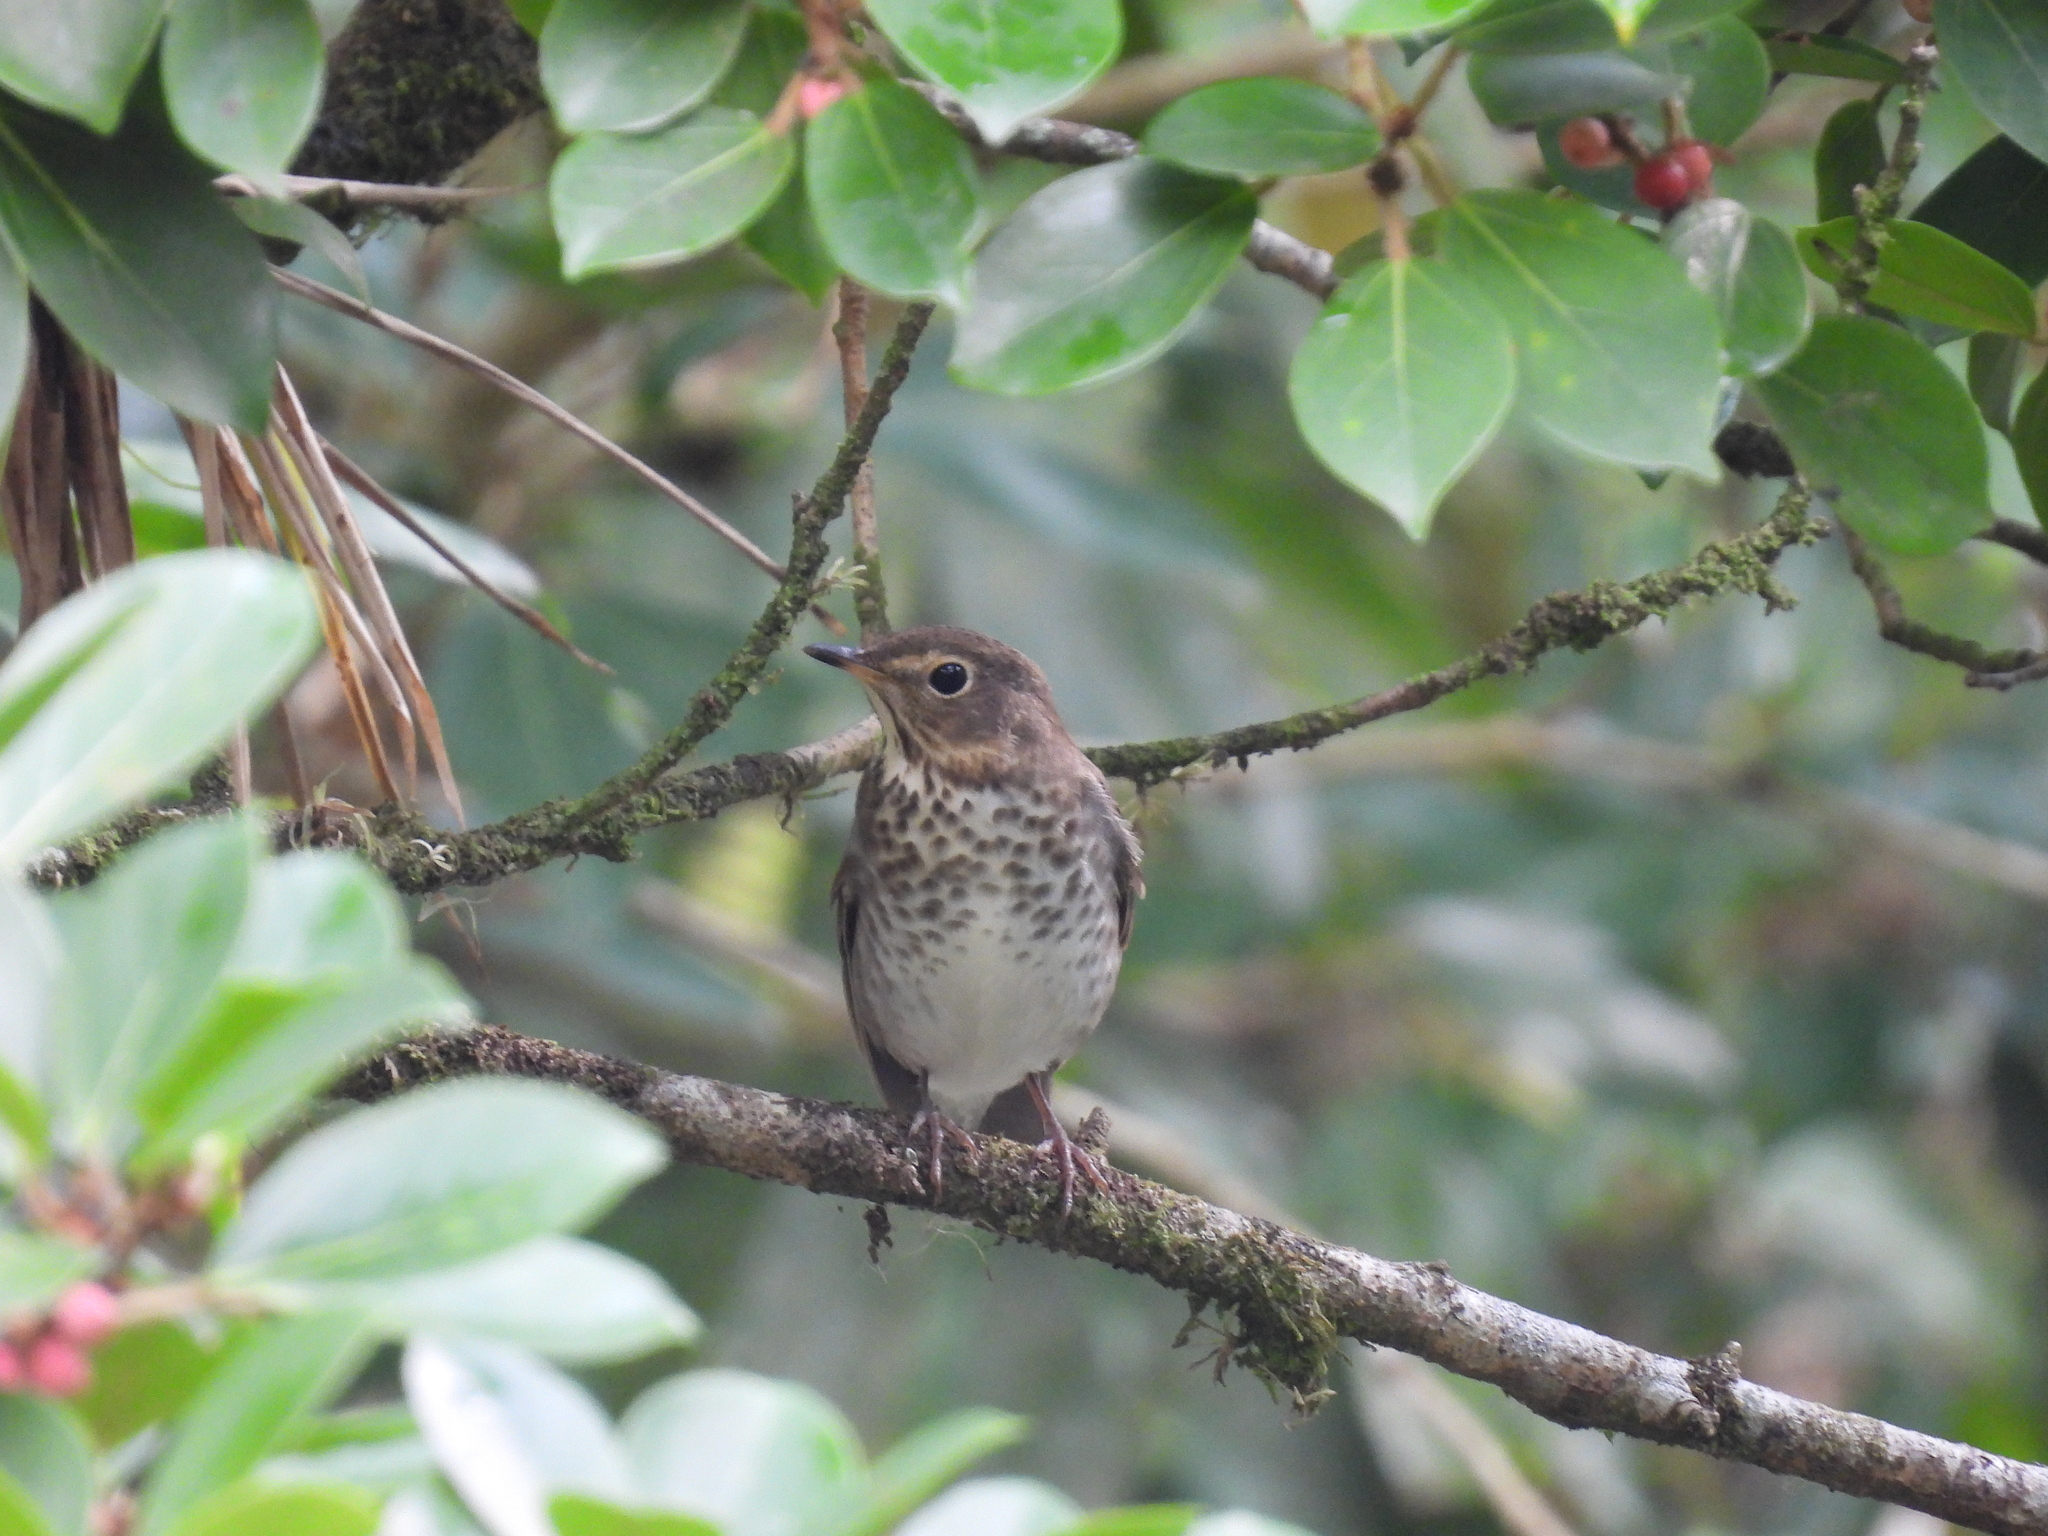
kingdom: Animalia
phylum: Chordata
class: Aves
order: Passeriformes
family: Turdidae
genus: Catharus
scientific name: Catharus ustulatus
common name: Swainson's thrush
